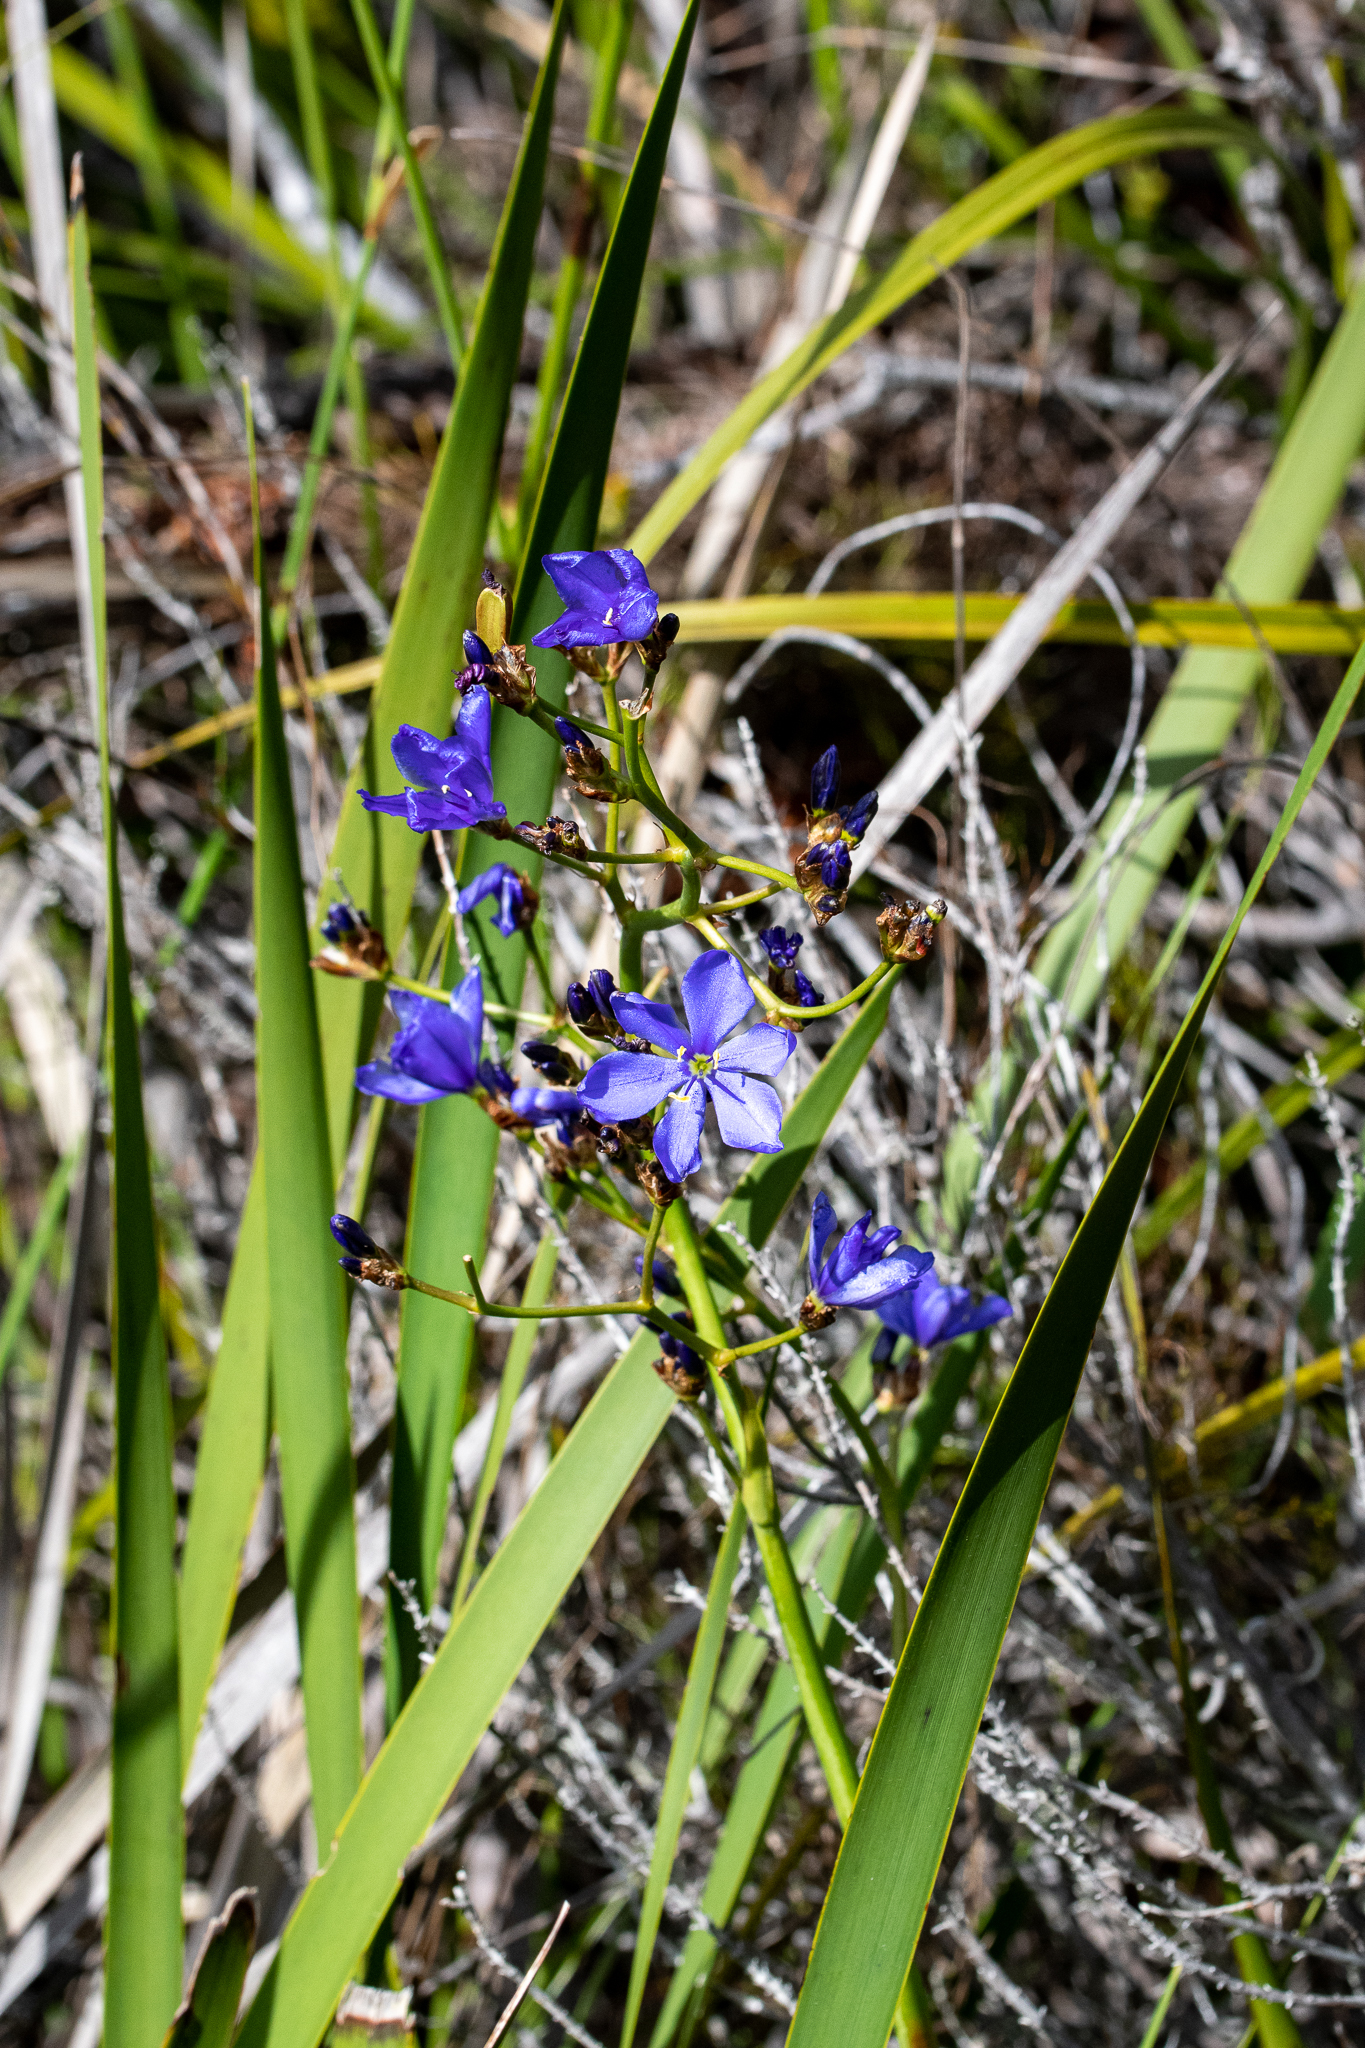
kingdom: Plantae
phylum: Tracheophyta
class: Liliopsida
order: Asparagales
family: Iridaceae
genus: Aristea
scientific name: Aristea bakeri
